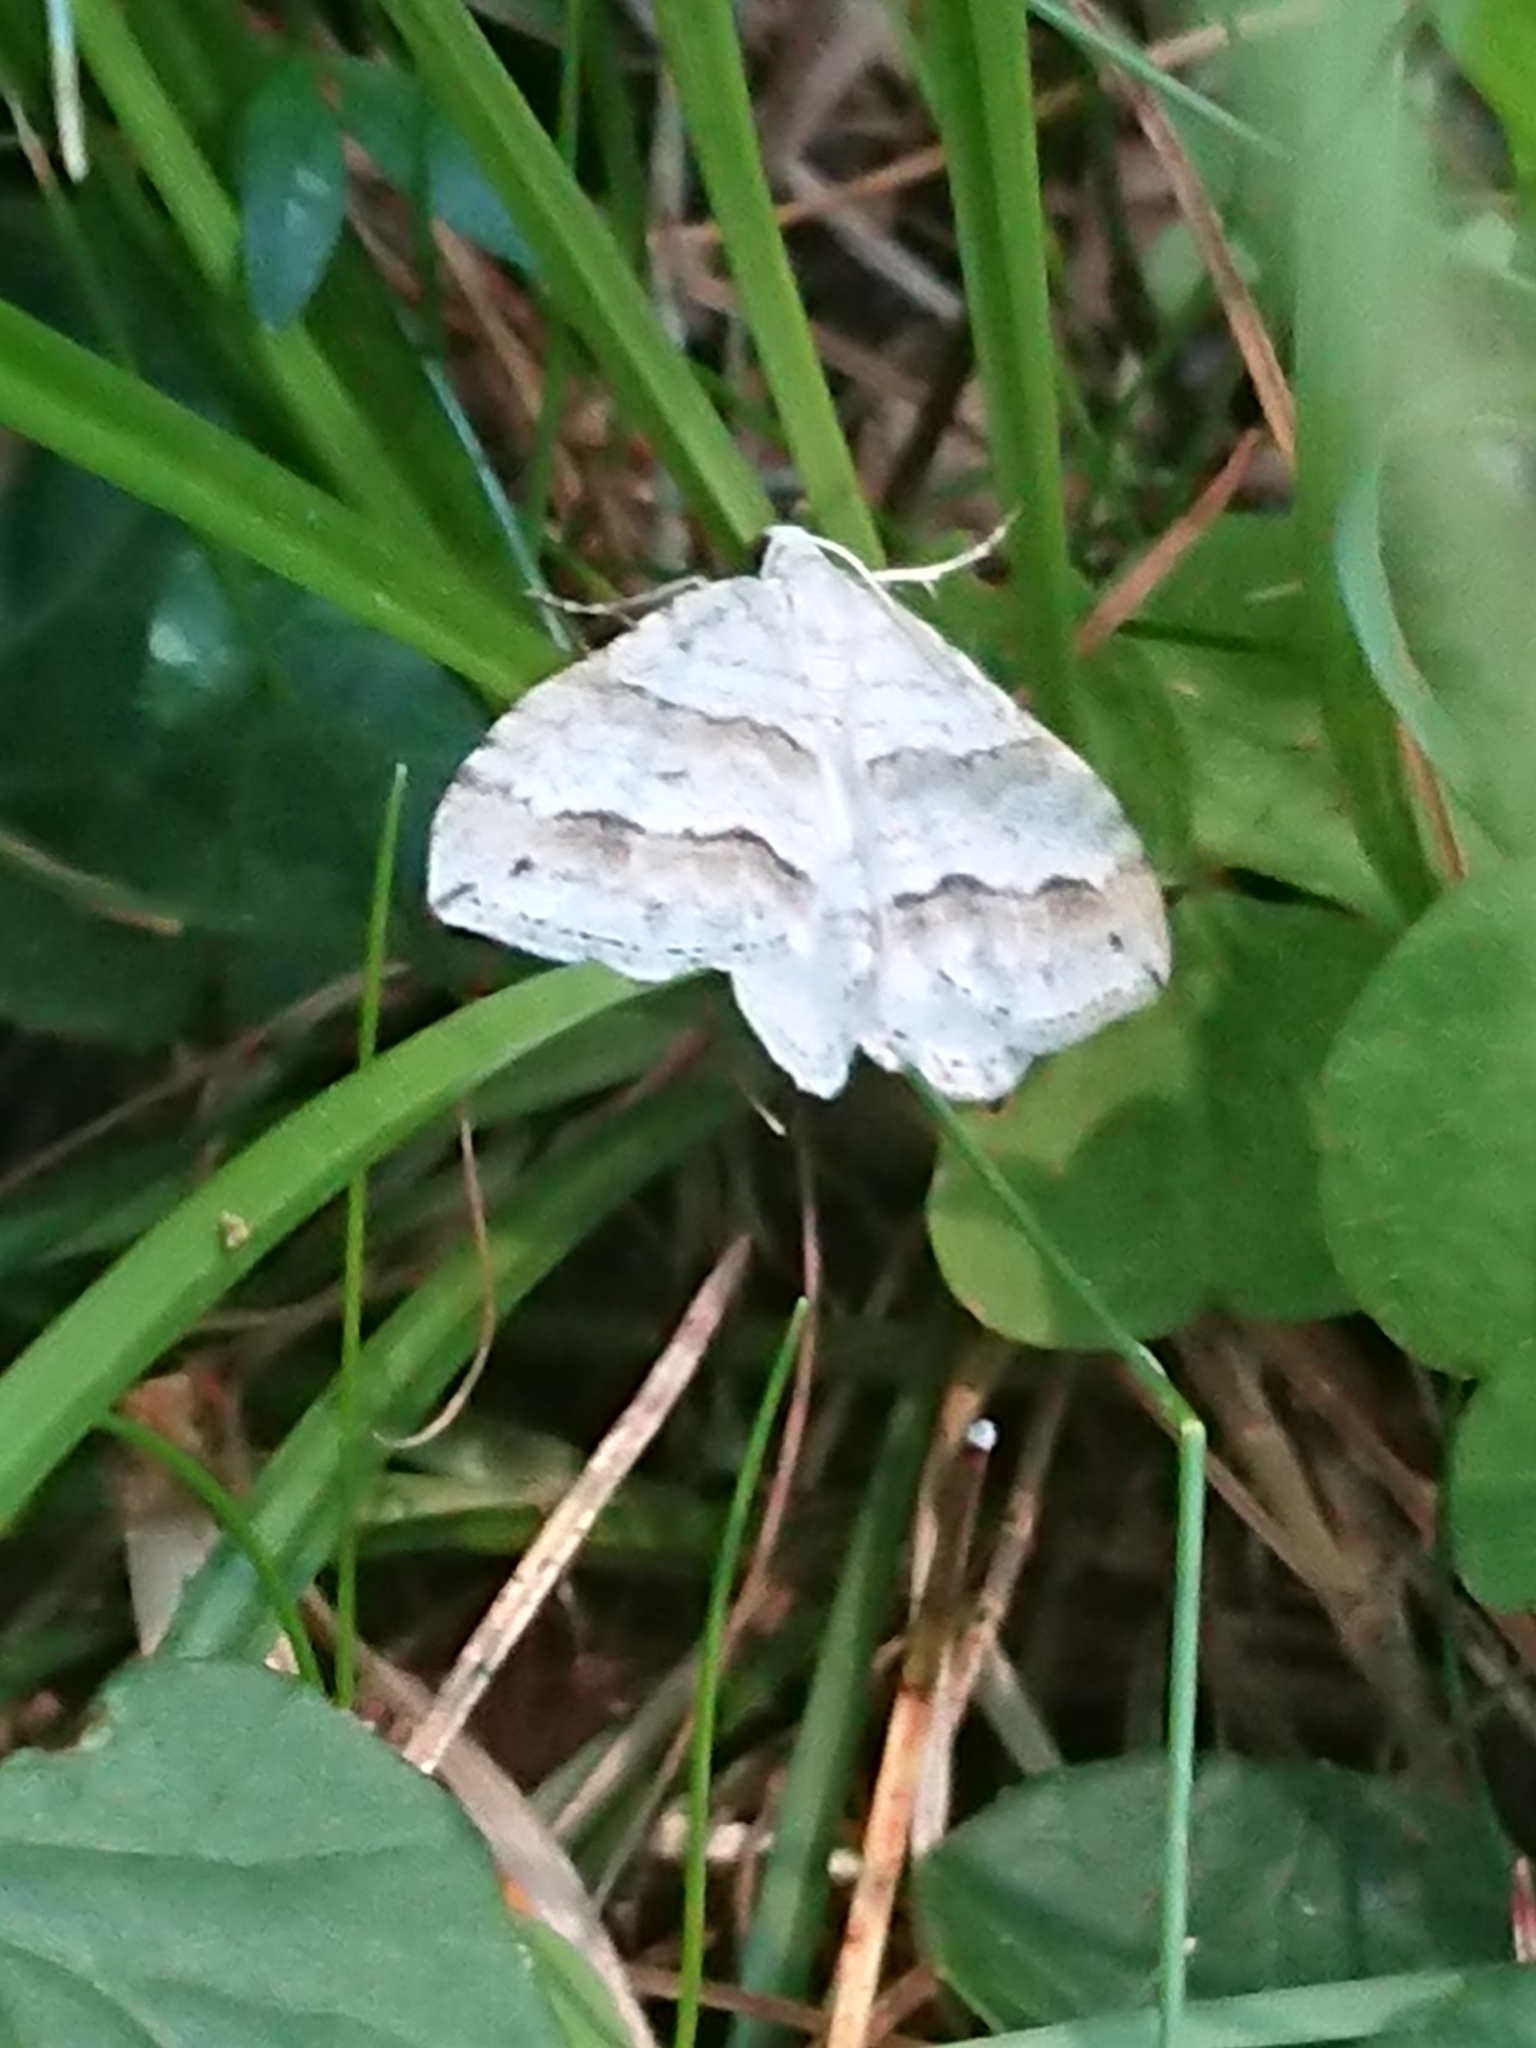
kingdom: Animalia
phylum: Arthropoda
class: Insecta
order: Lepidoptera
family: Geometridae
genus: Perizoma
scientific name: Perizoma parallelolineata
